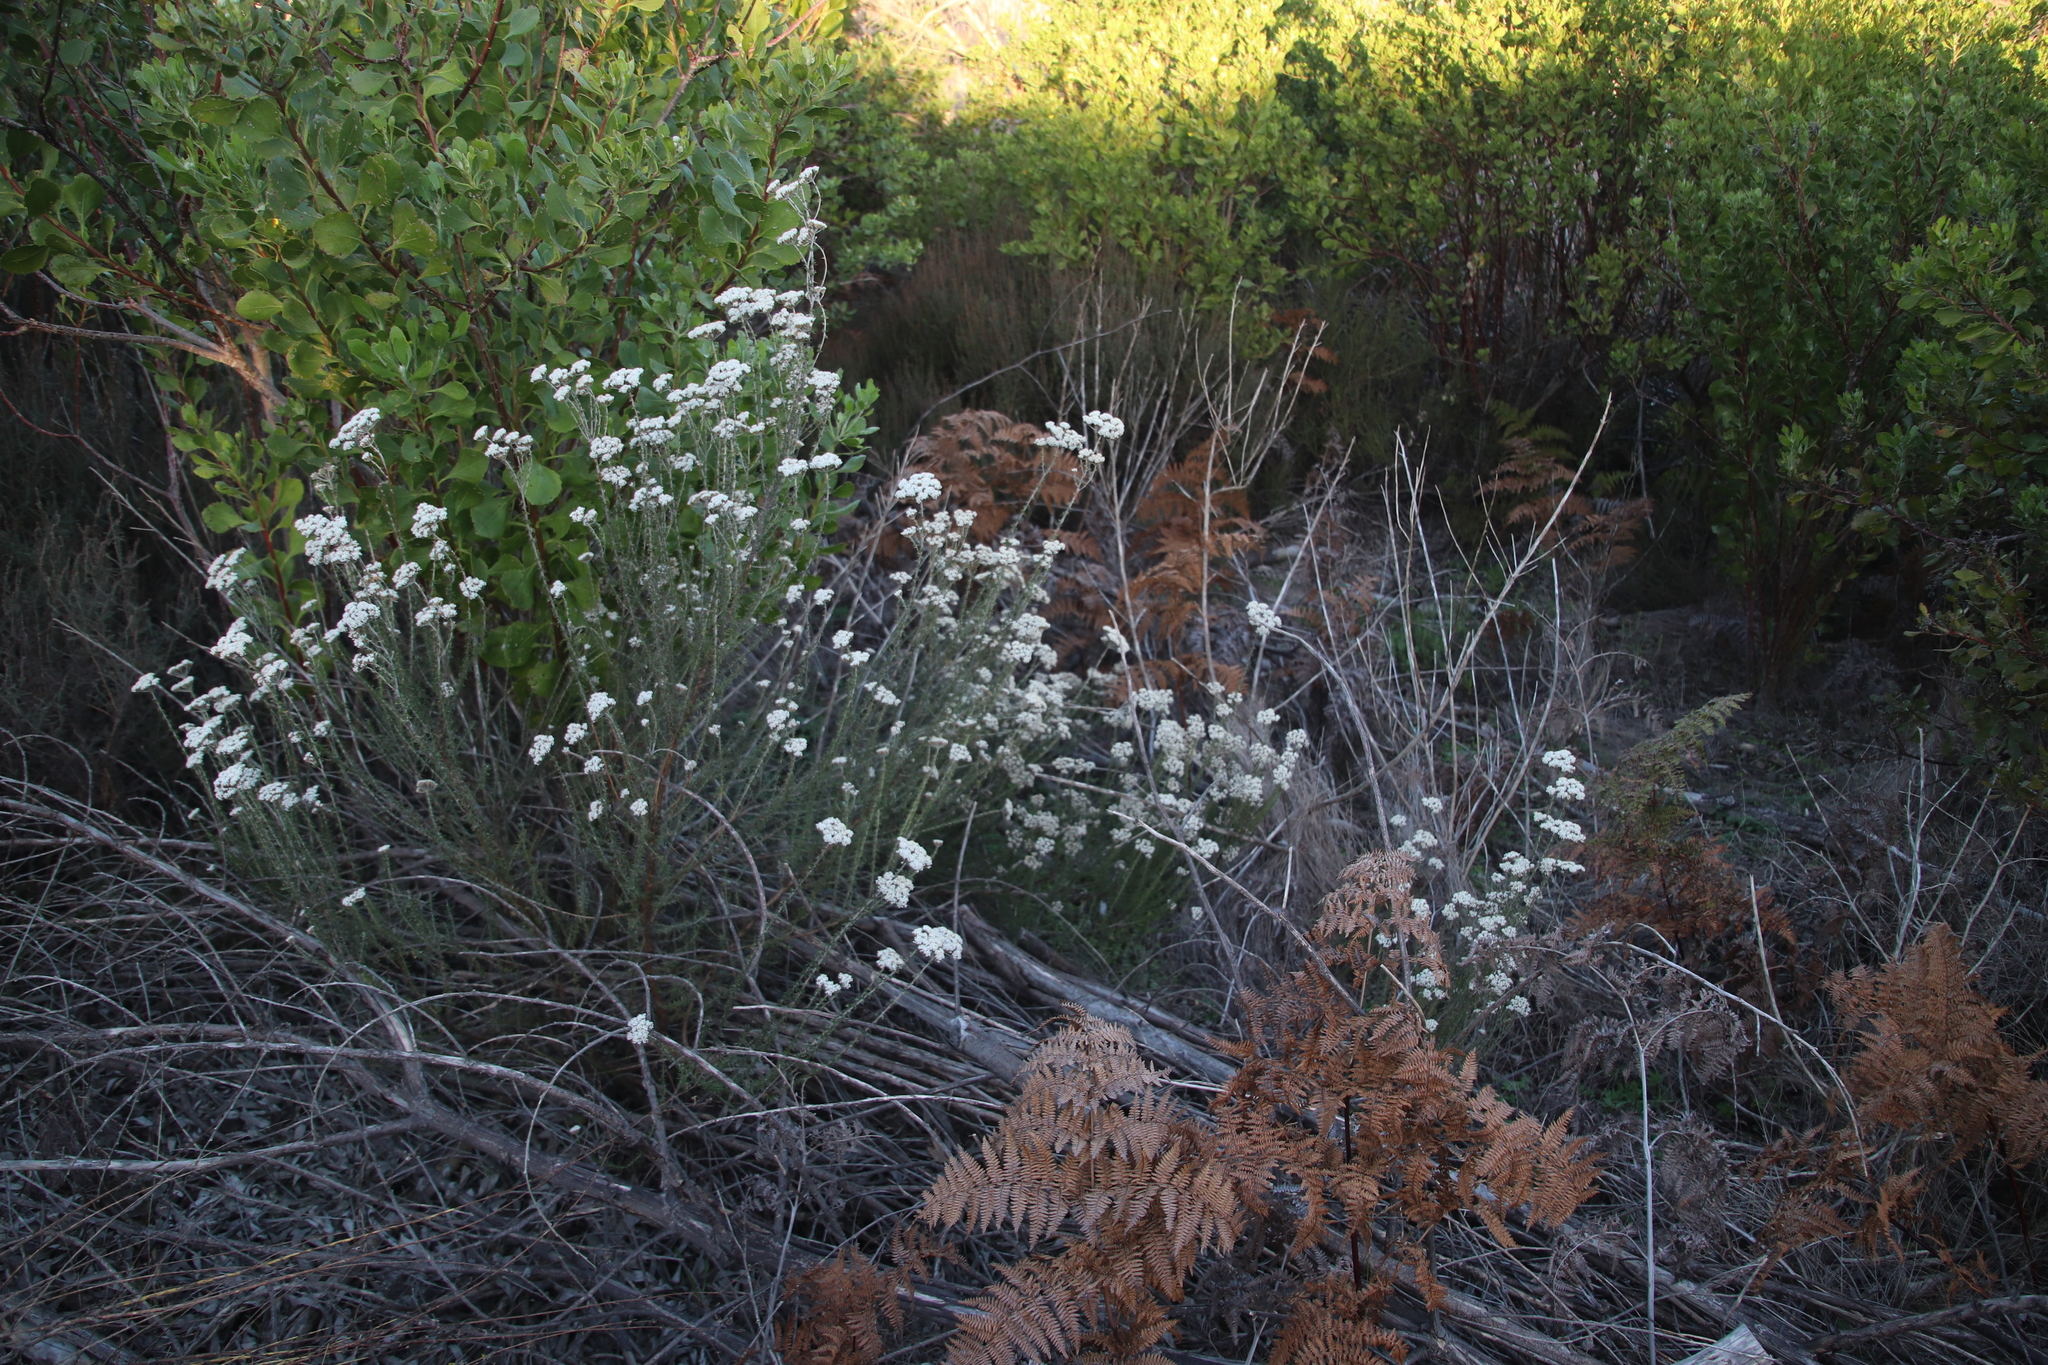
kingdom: Plantae
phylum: Tracheophyta
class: Magnoliopsida
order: Asterales
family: Asteraceae
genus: Metalasia
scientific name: Metalasia densa
